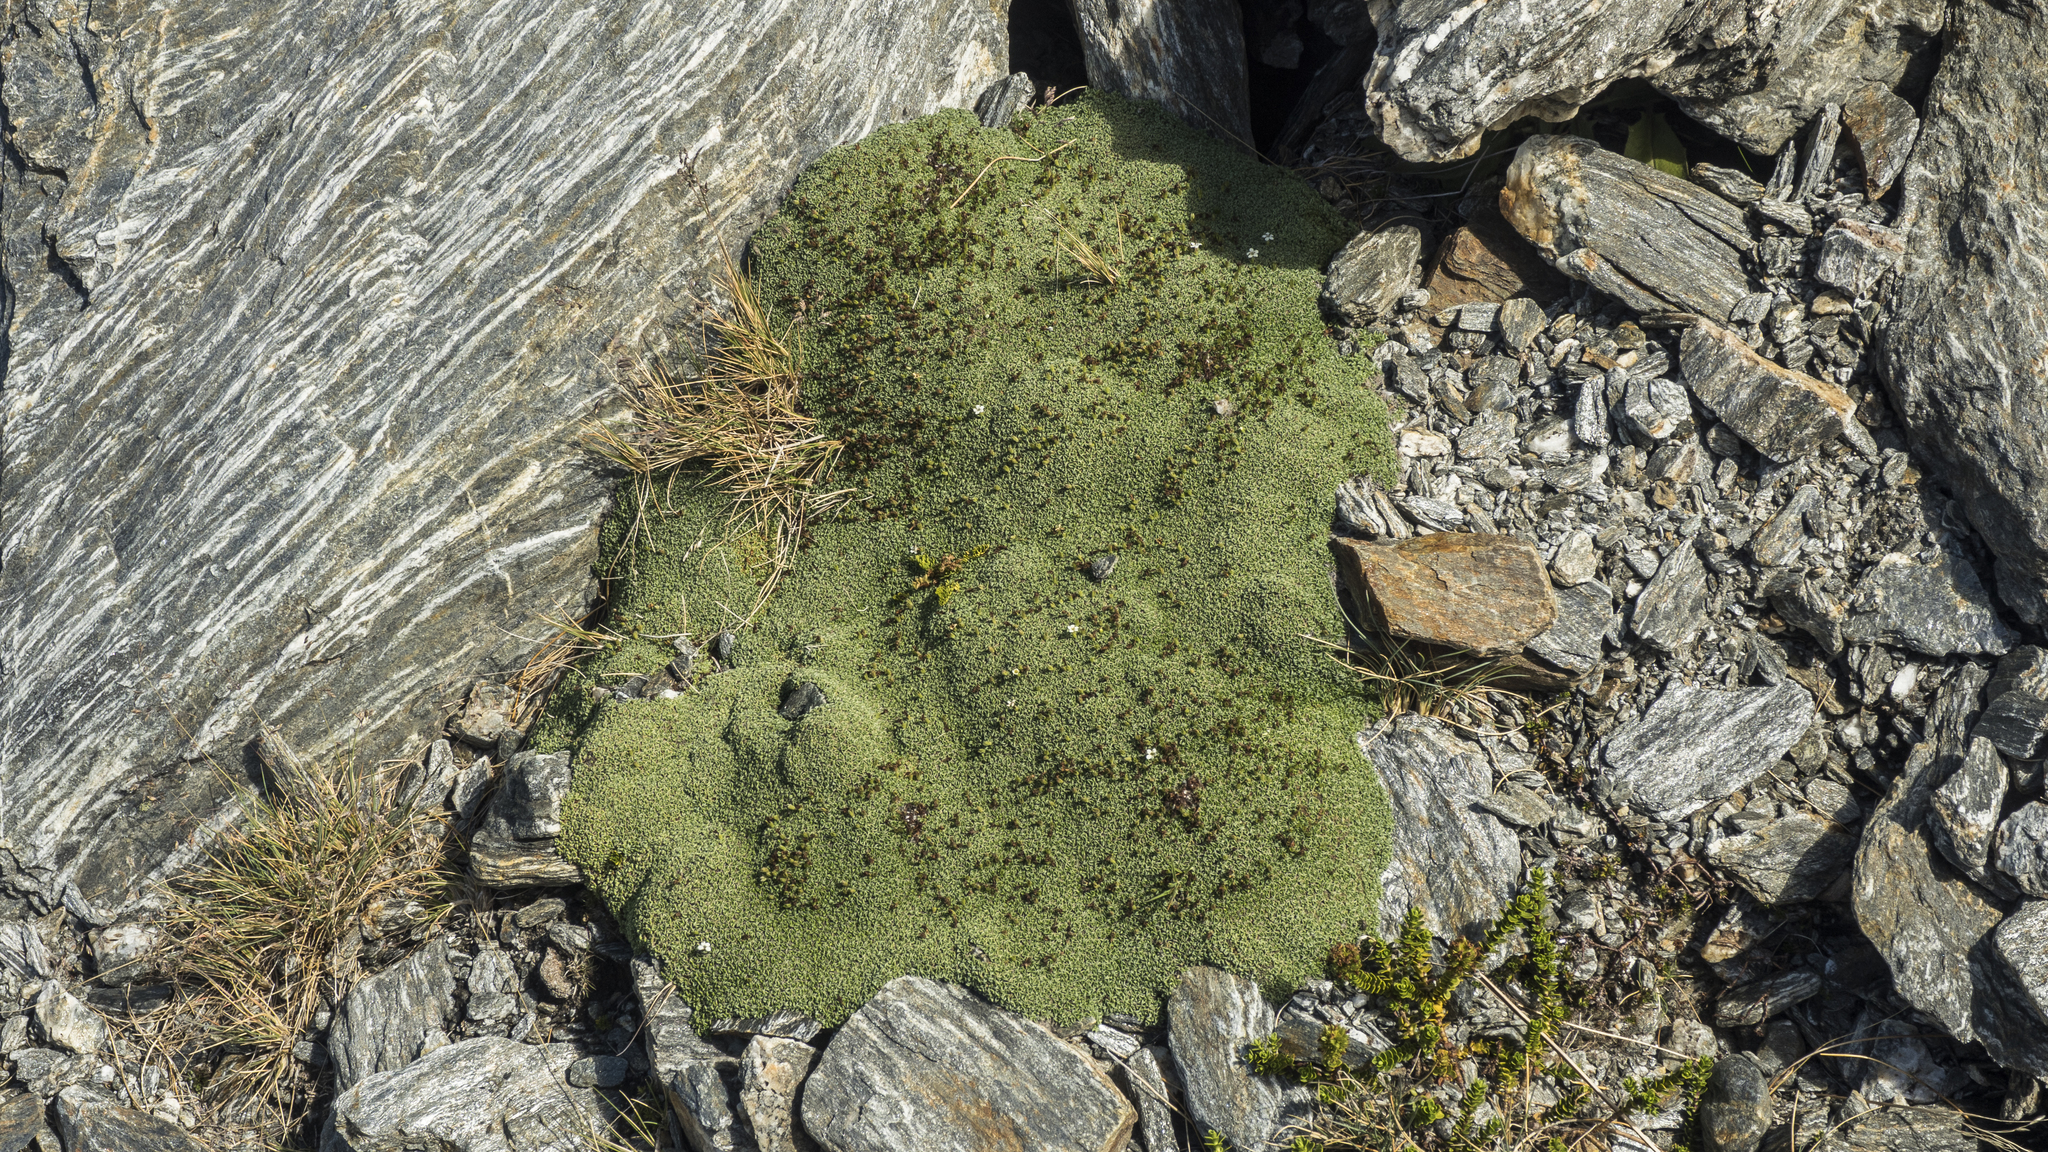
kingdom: Plantae
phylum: Tracheophyta
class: Magnoliopsida
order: Boraginales
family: Boraginaceae
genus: Myosotis
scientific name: Myosotis glabrescens
